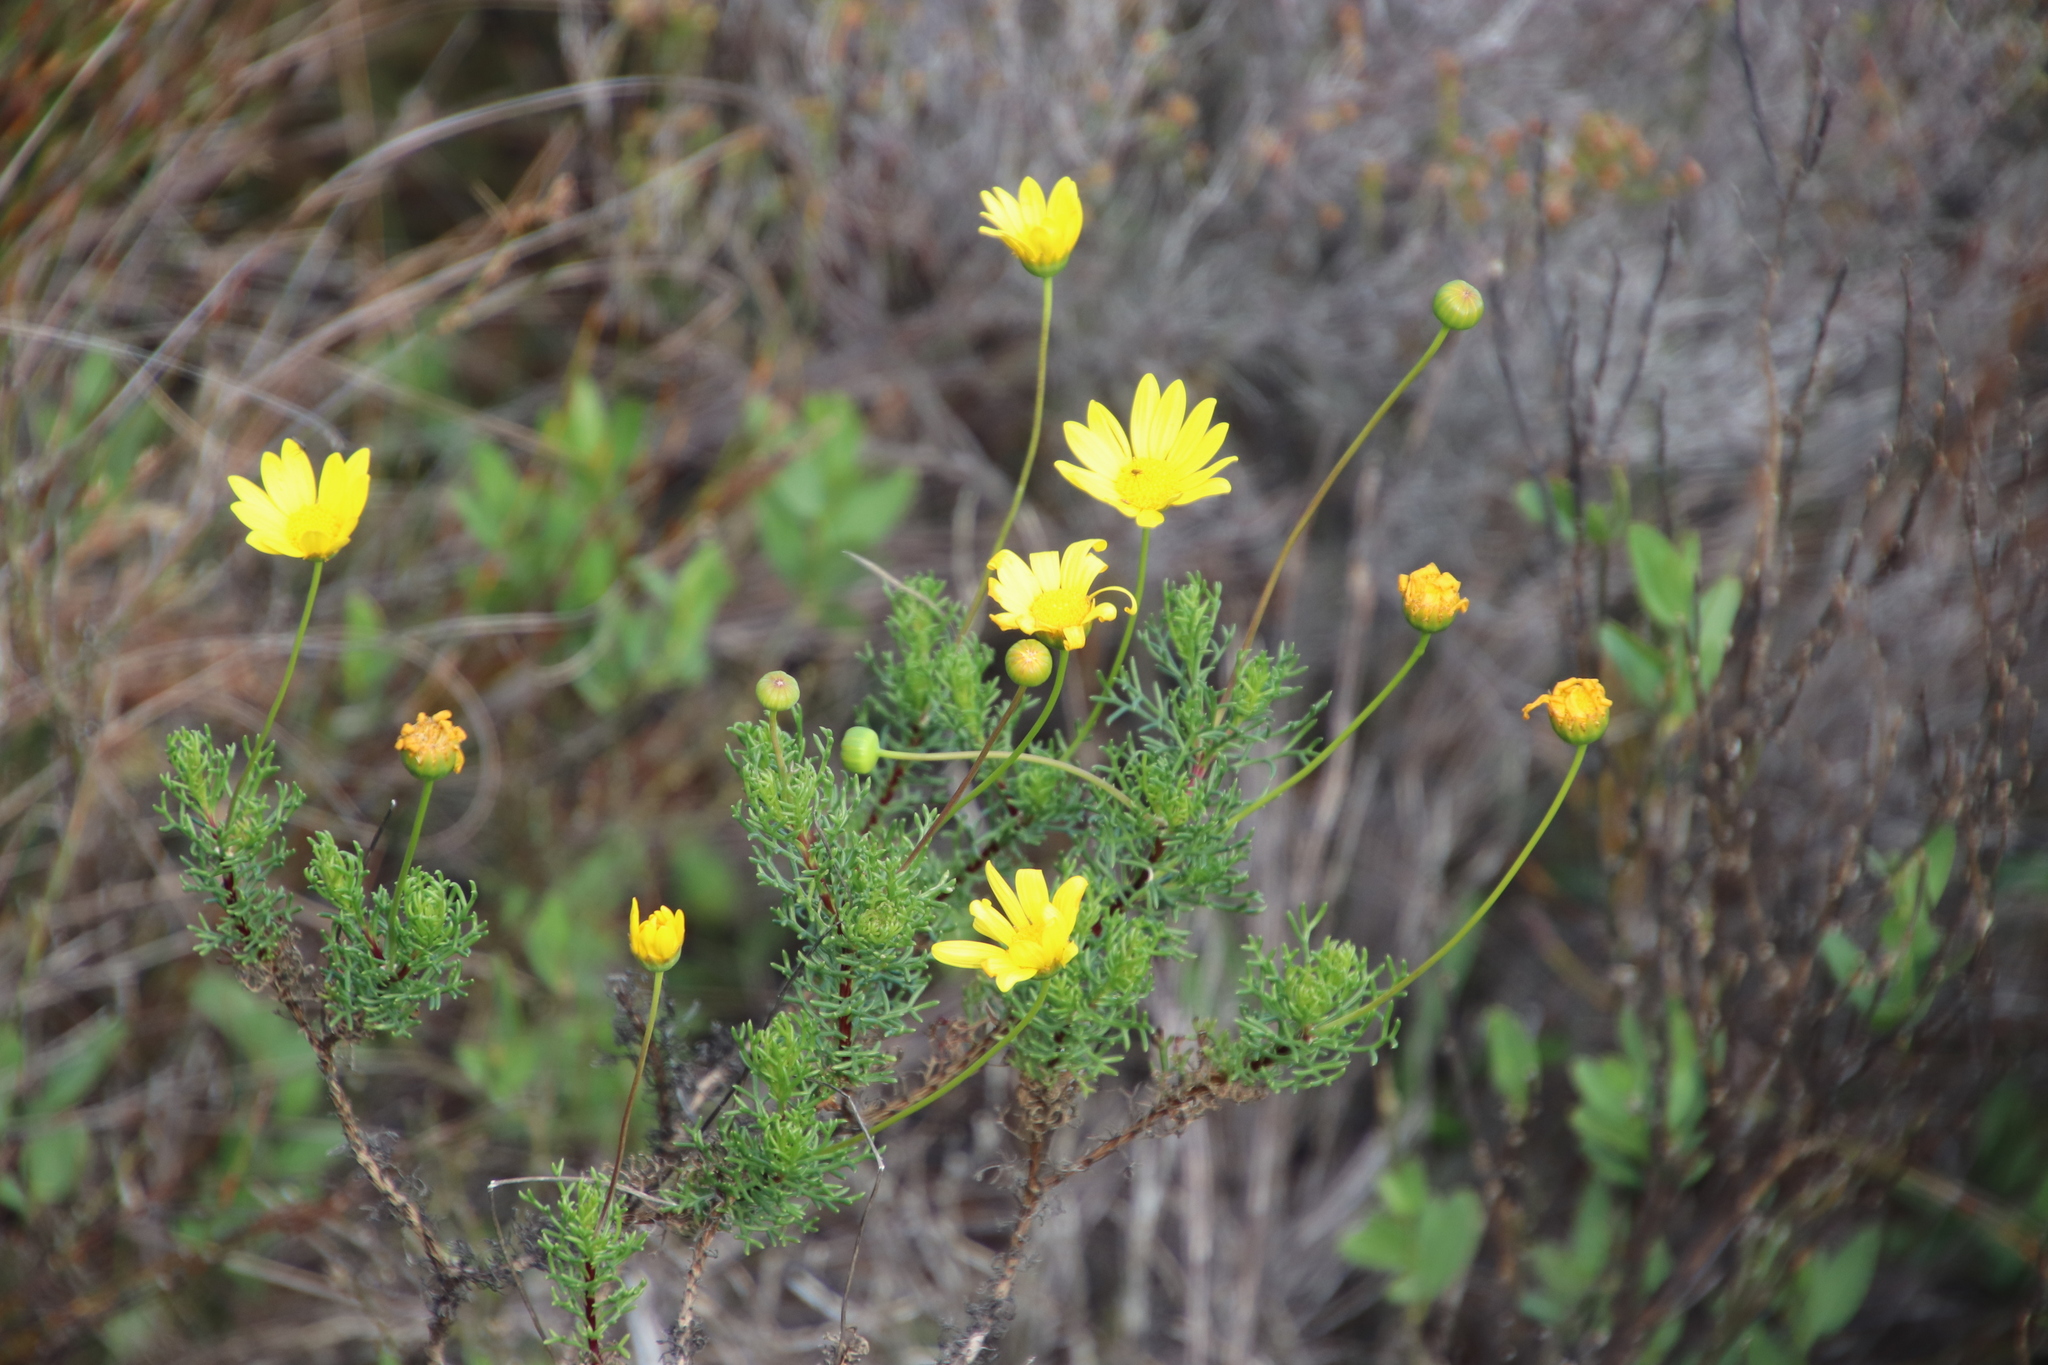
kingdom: Plantae
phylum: Tracheophyta
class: Magnoliopsida
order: Asterales
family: Asteraceae
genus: Euryops
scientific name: Euryops abrotanifolius
